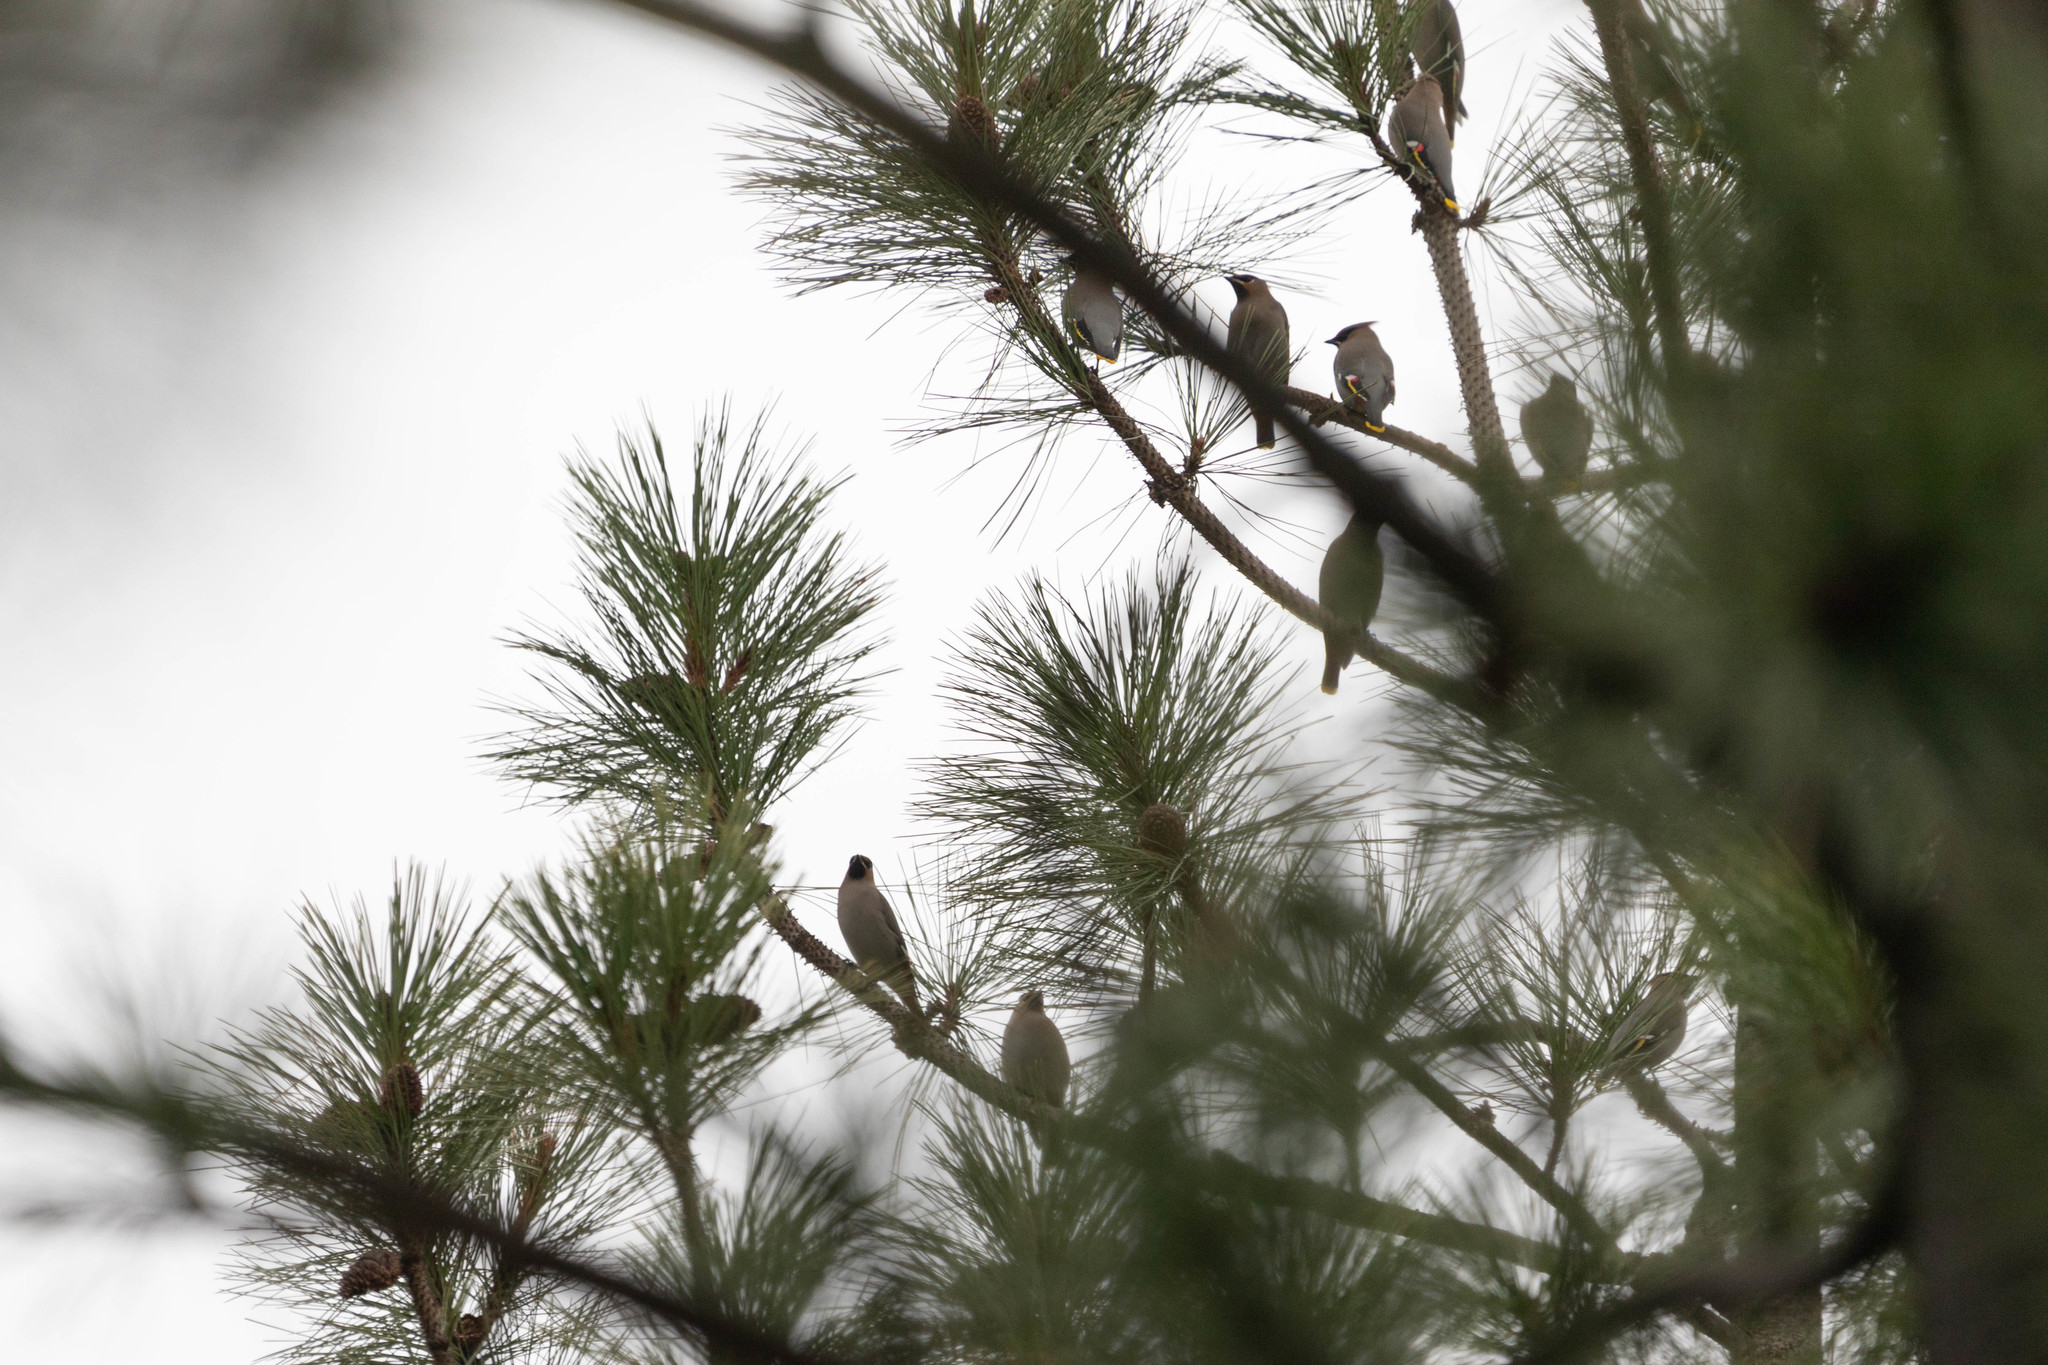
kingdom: Animalia
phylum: Chordata
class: Aves
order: Passeriformes
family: Bombycillidae
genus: Bombycilla
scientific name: Bombycilla garrulus
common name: Bohemian waxwing
